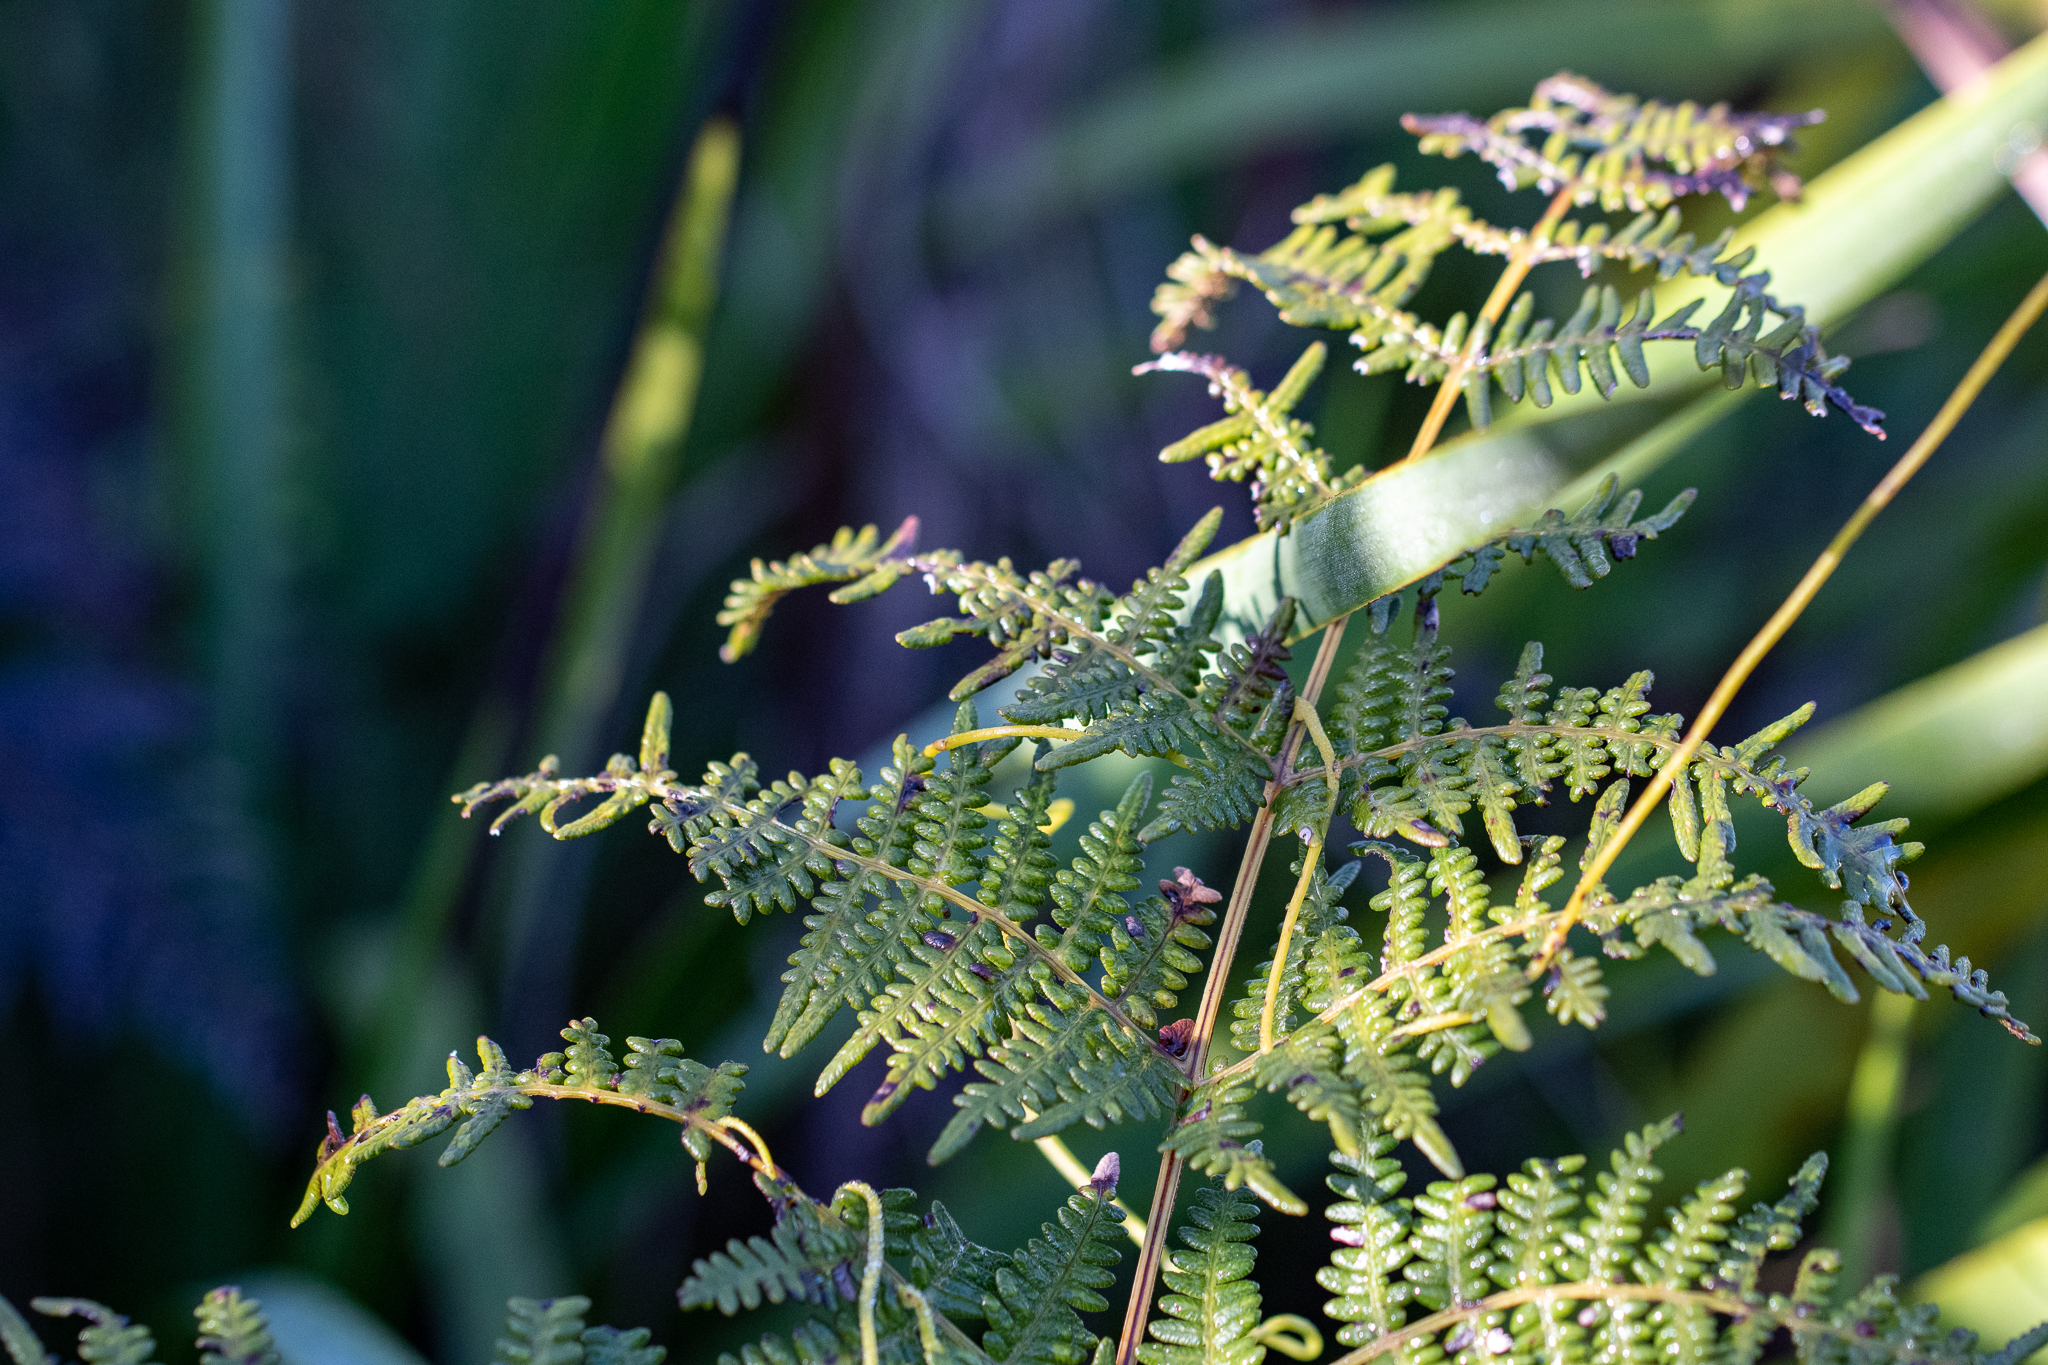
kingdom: Plantae
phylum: Tracheophyta
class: Polypodiopsida
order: Polypodiales
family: Dennstaedtiaceae
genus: Pteridium
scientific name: Pteridium aquilinum
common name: Bracken
